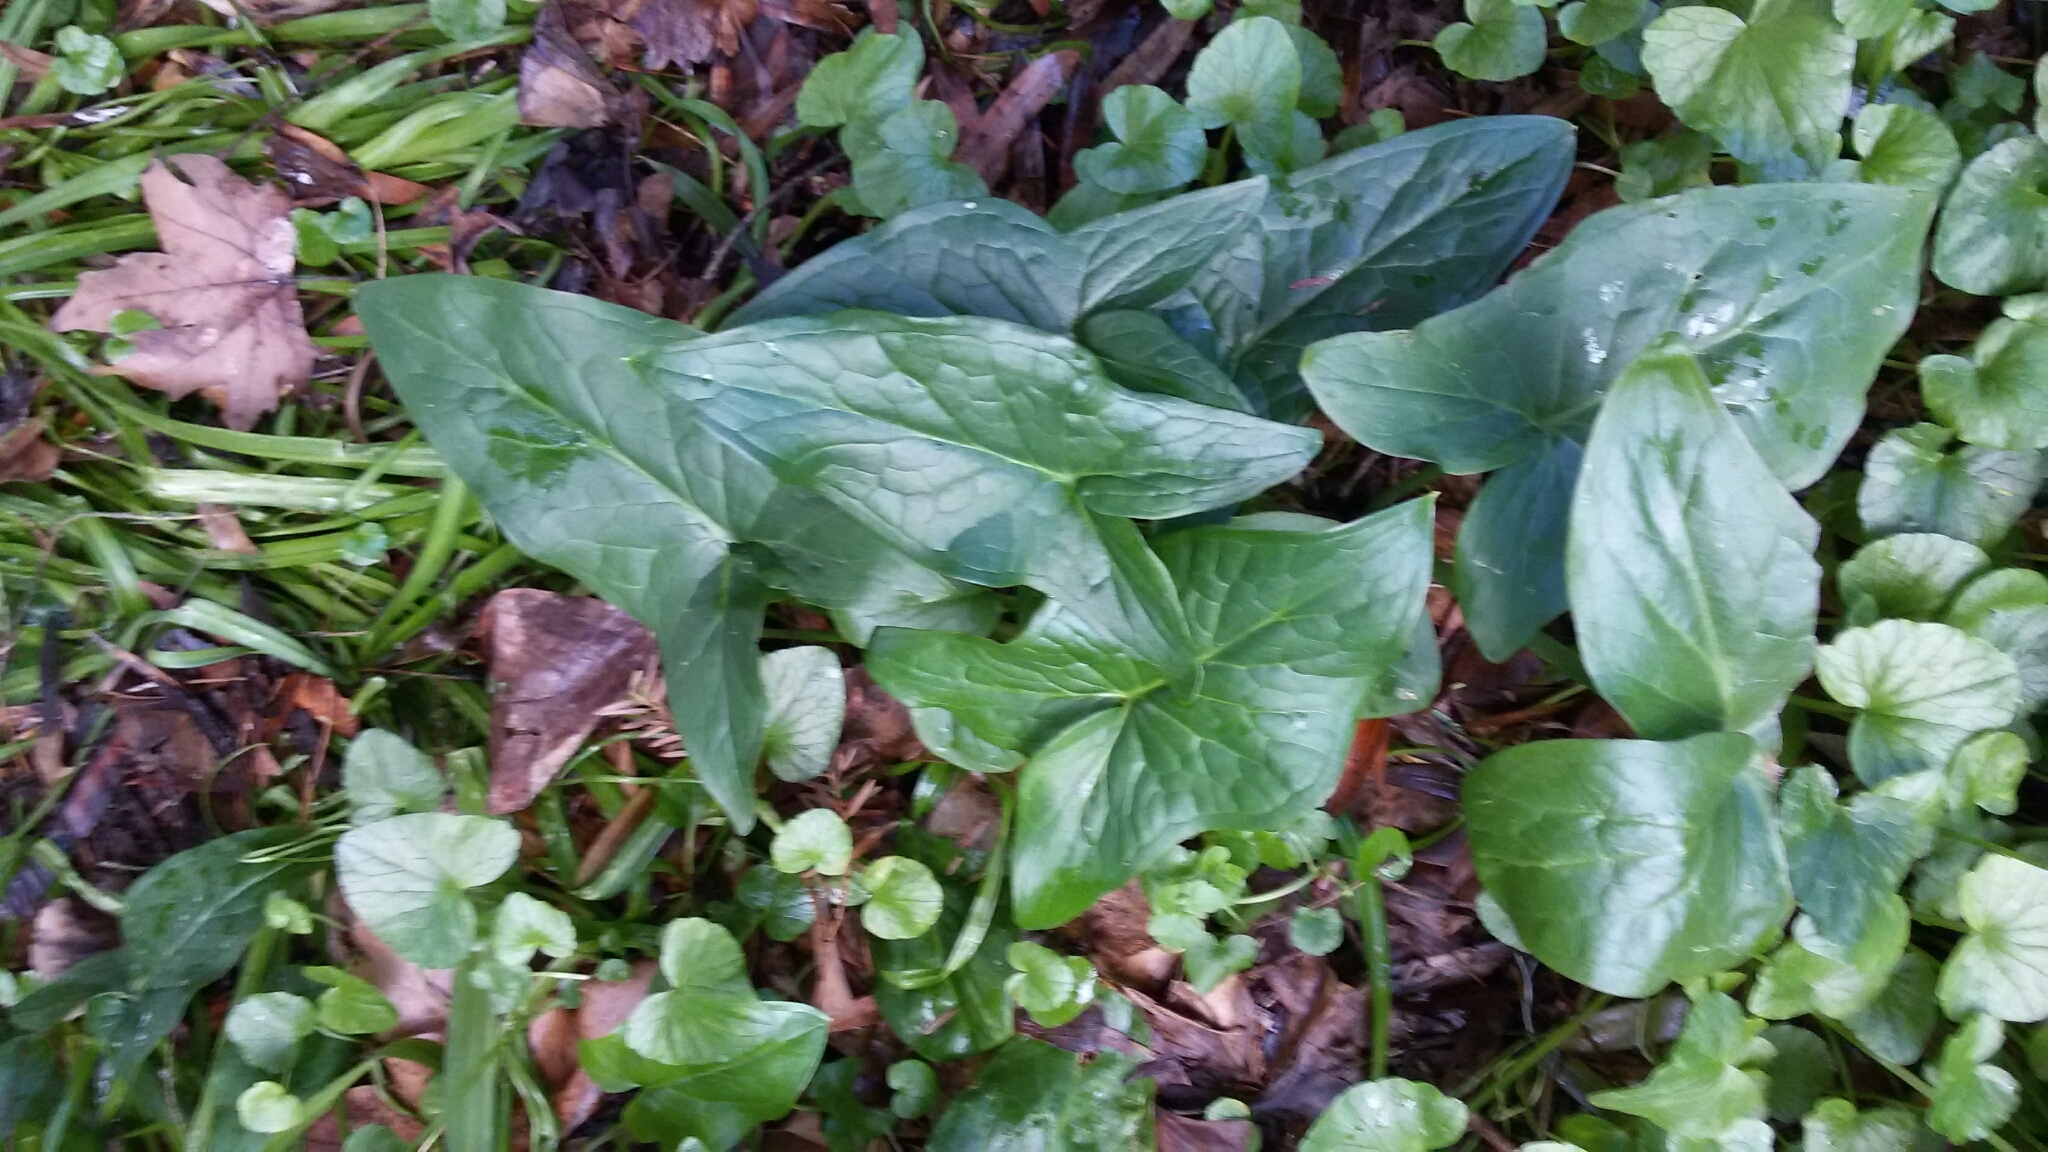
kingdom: Plantae
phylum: Tracheophyta
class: Liliopsida
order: Alismatales
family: Araceae
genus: Arum
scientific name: Arum italicum
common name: Italian lords-and-ladies
